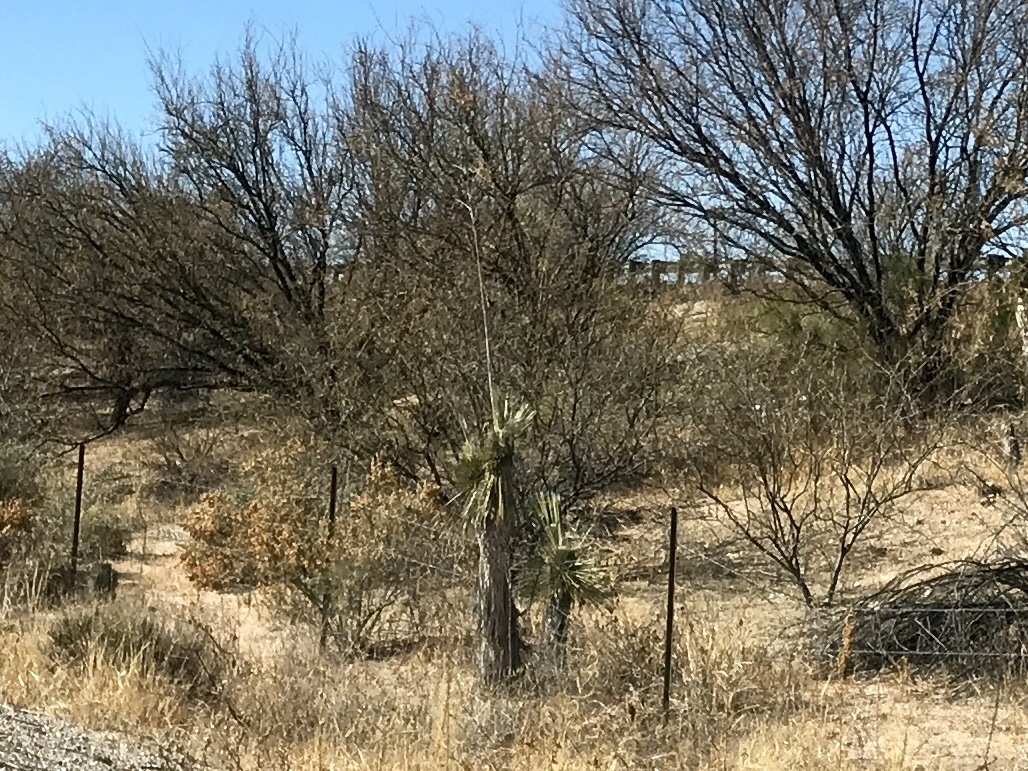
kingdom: Plantae
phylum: Tracheophyta
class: Liliopsida
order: Asparagales
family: Asparagaceae
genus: Yucca
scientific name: Yucca elata
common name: Palmella
